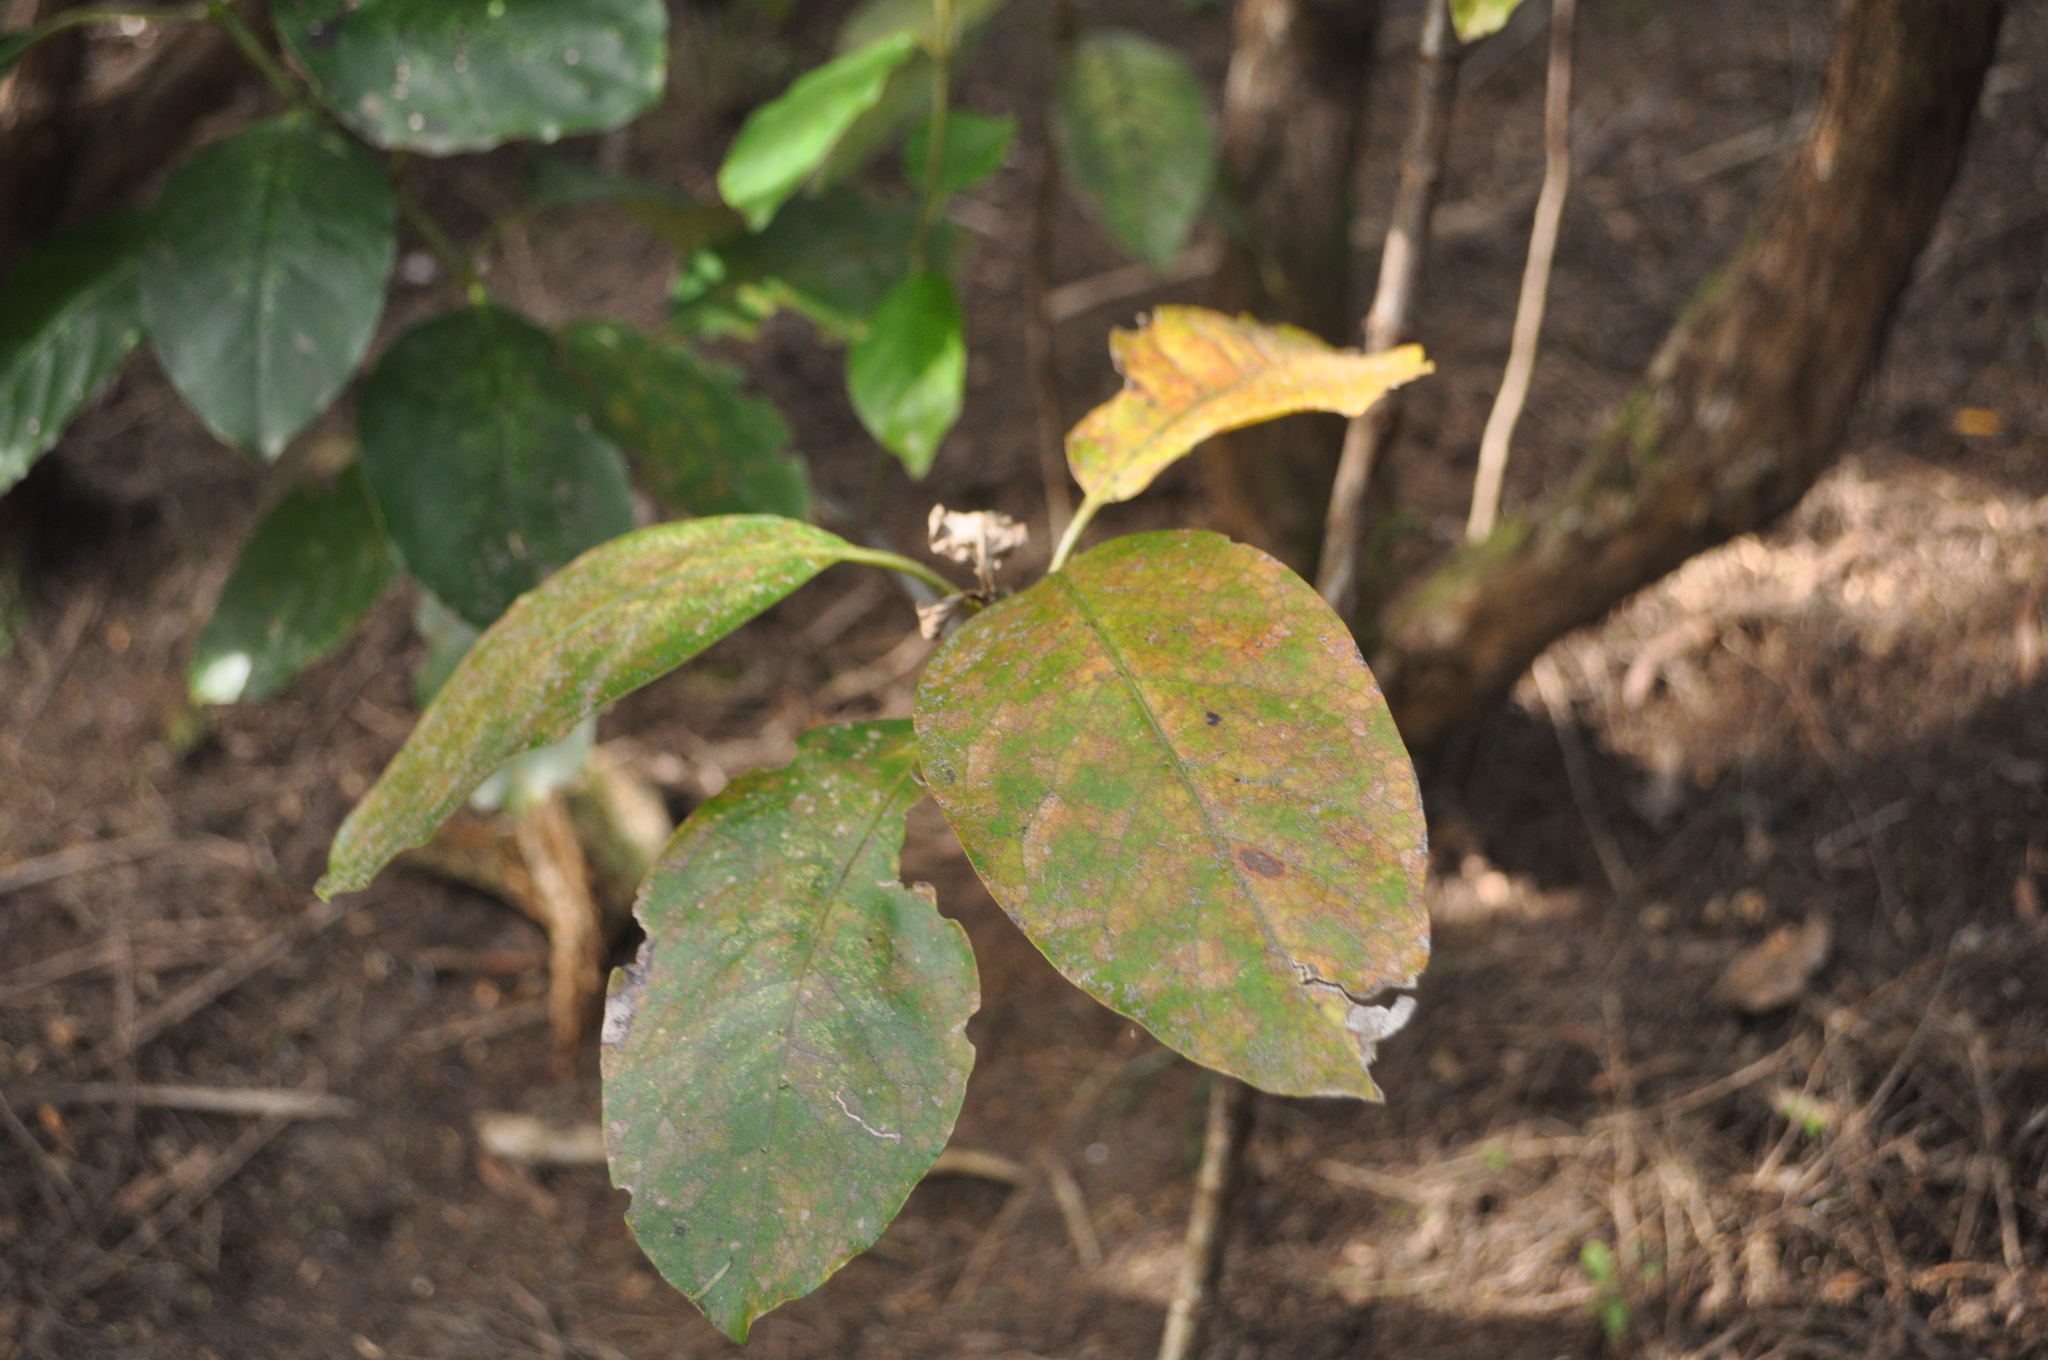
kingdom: Plantae
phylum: Tracheophyta
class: Magnoliopsida
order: Gentianales
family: Rubiaceae
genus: Coprosma
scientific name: Coprosma autumnalis
